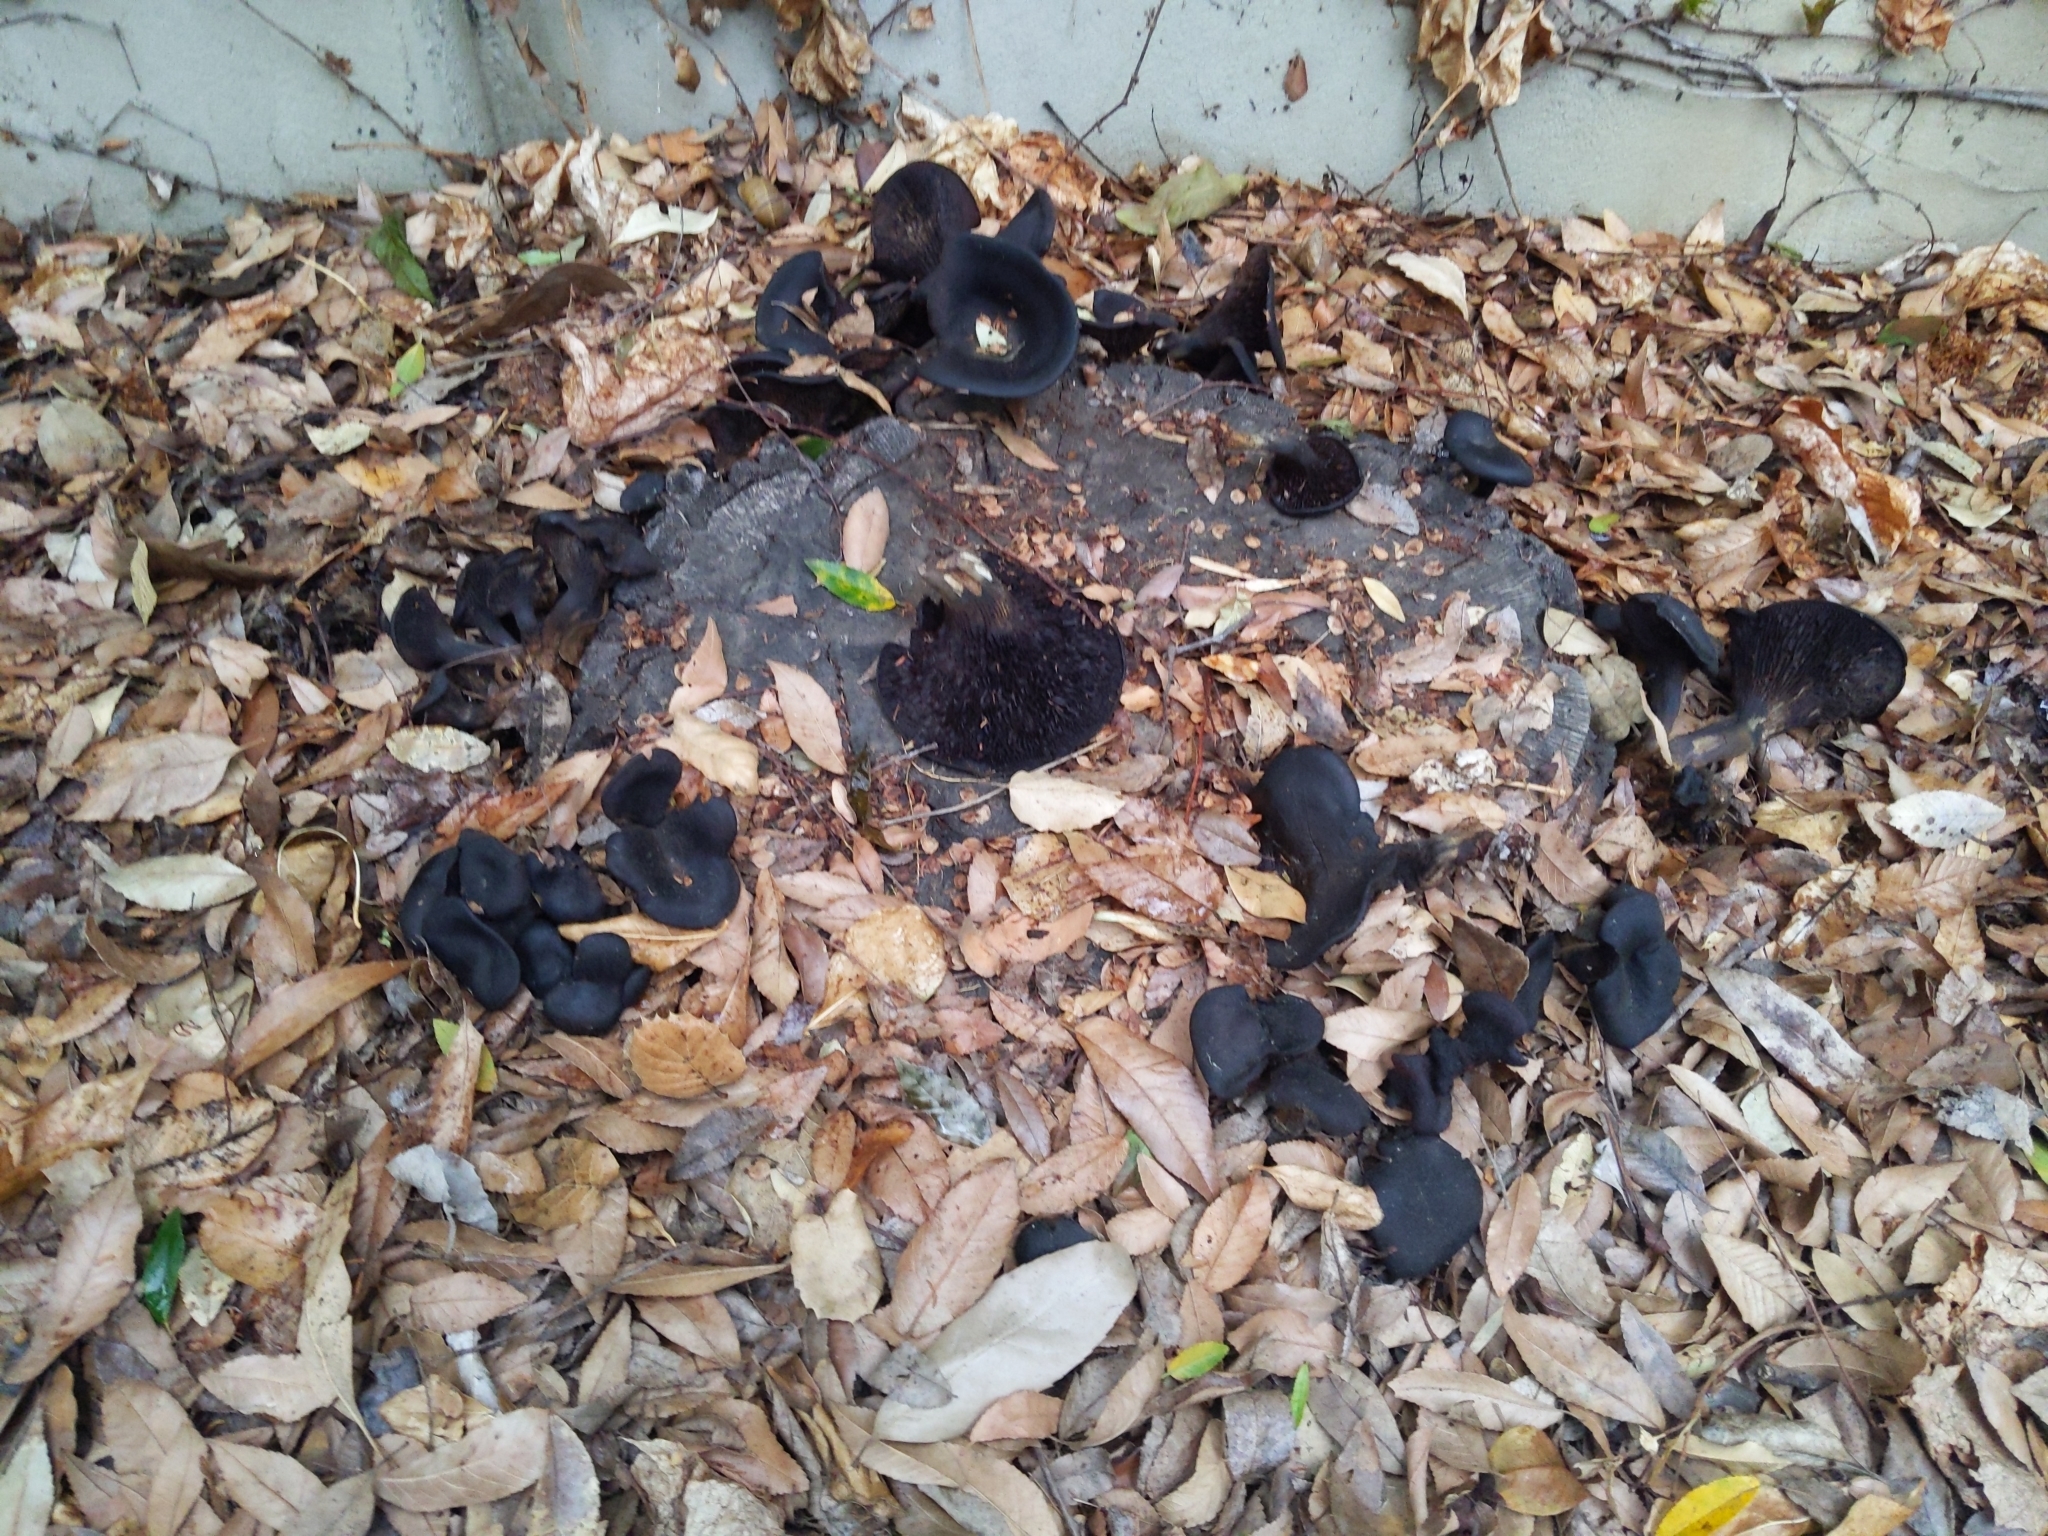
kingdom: Fungi
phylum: Basidiomycota
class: Agaricomycetes
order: Agaricales
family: Omphalotaceae
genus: Omphalotus
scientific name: Omphalotus olivascens
